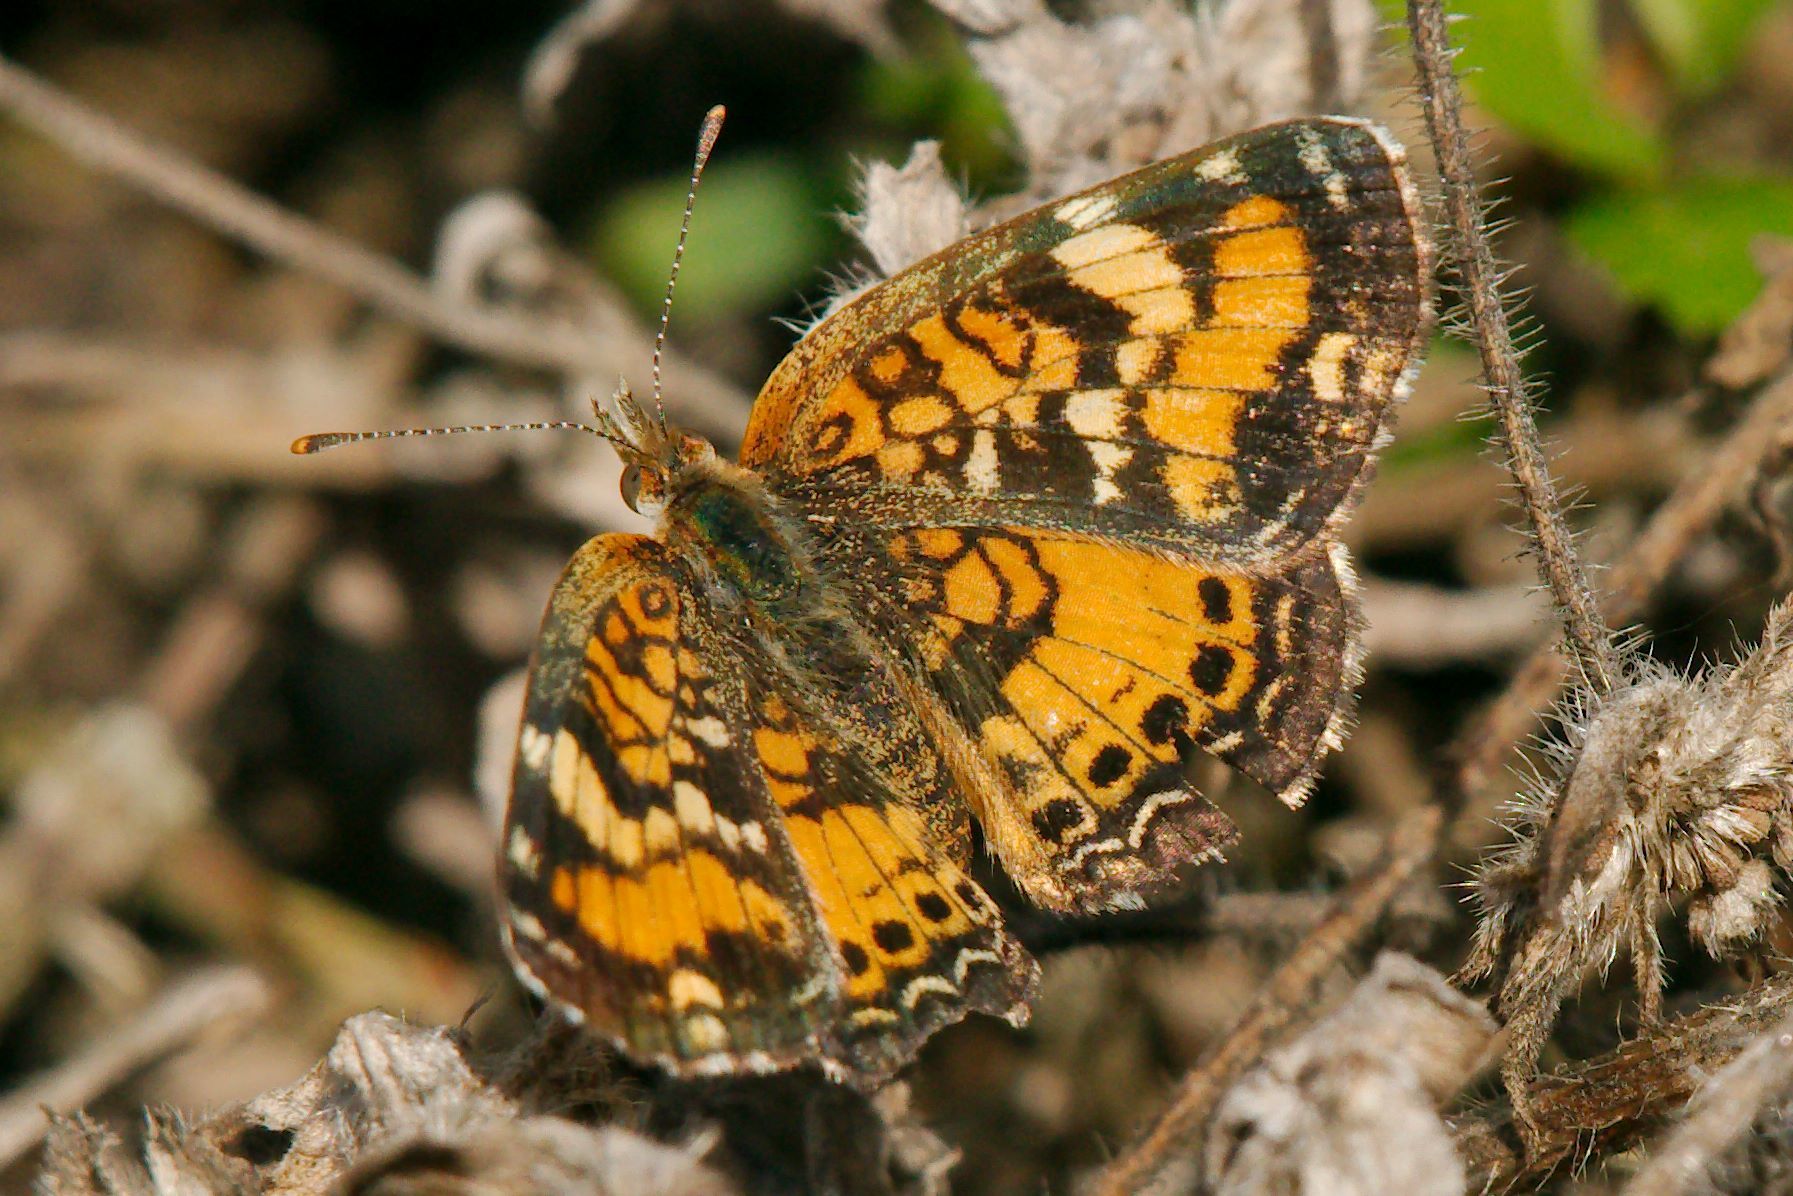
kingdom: Animalia
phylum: Arthropoda
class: Insecta
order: Lepidoptera
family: Nymphalidae
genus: Phyciodes
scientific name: Phyciodes phaon
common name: Phaon crescent
